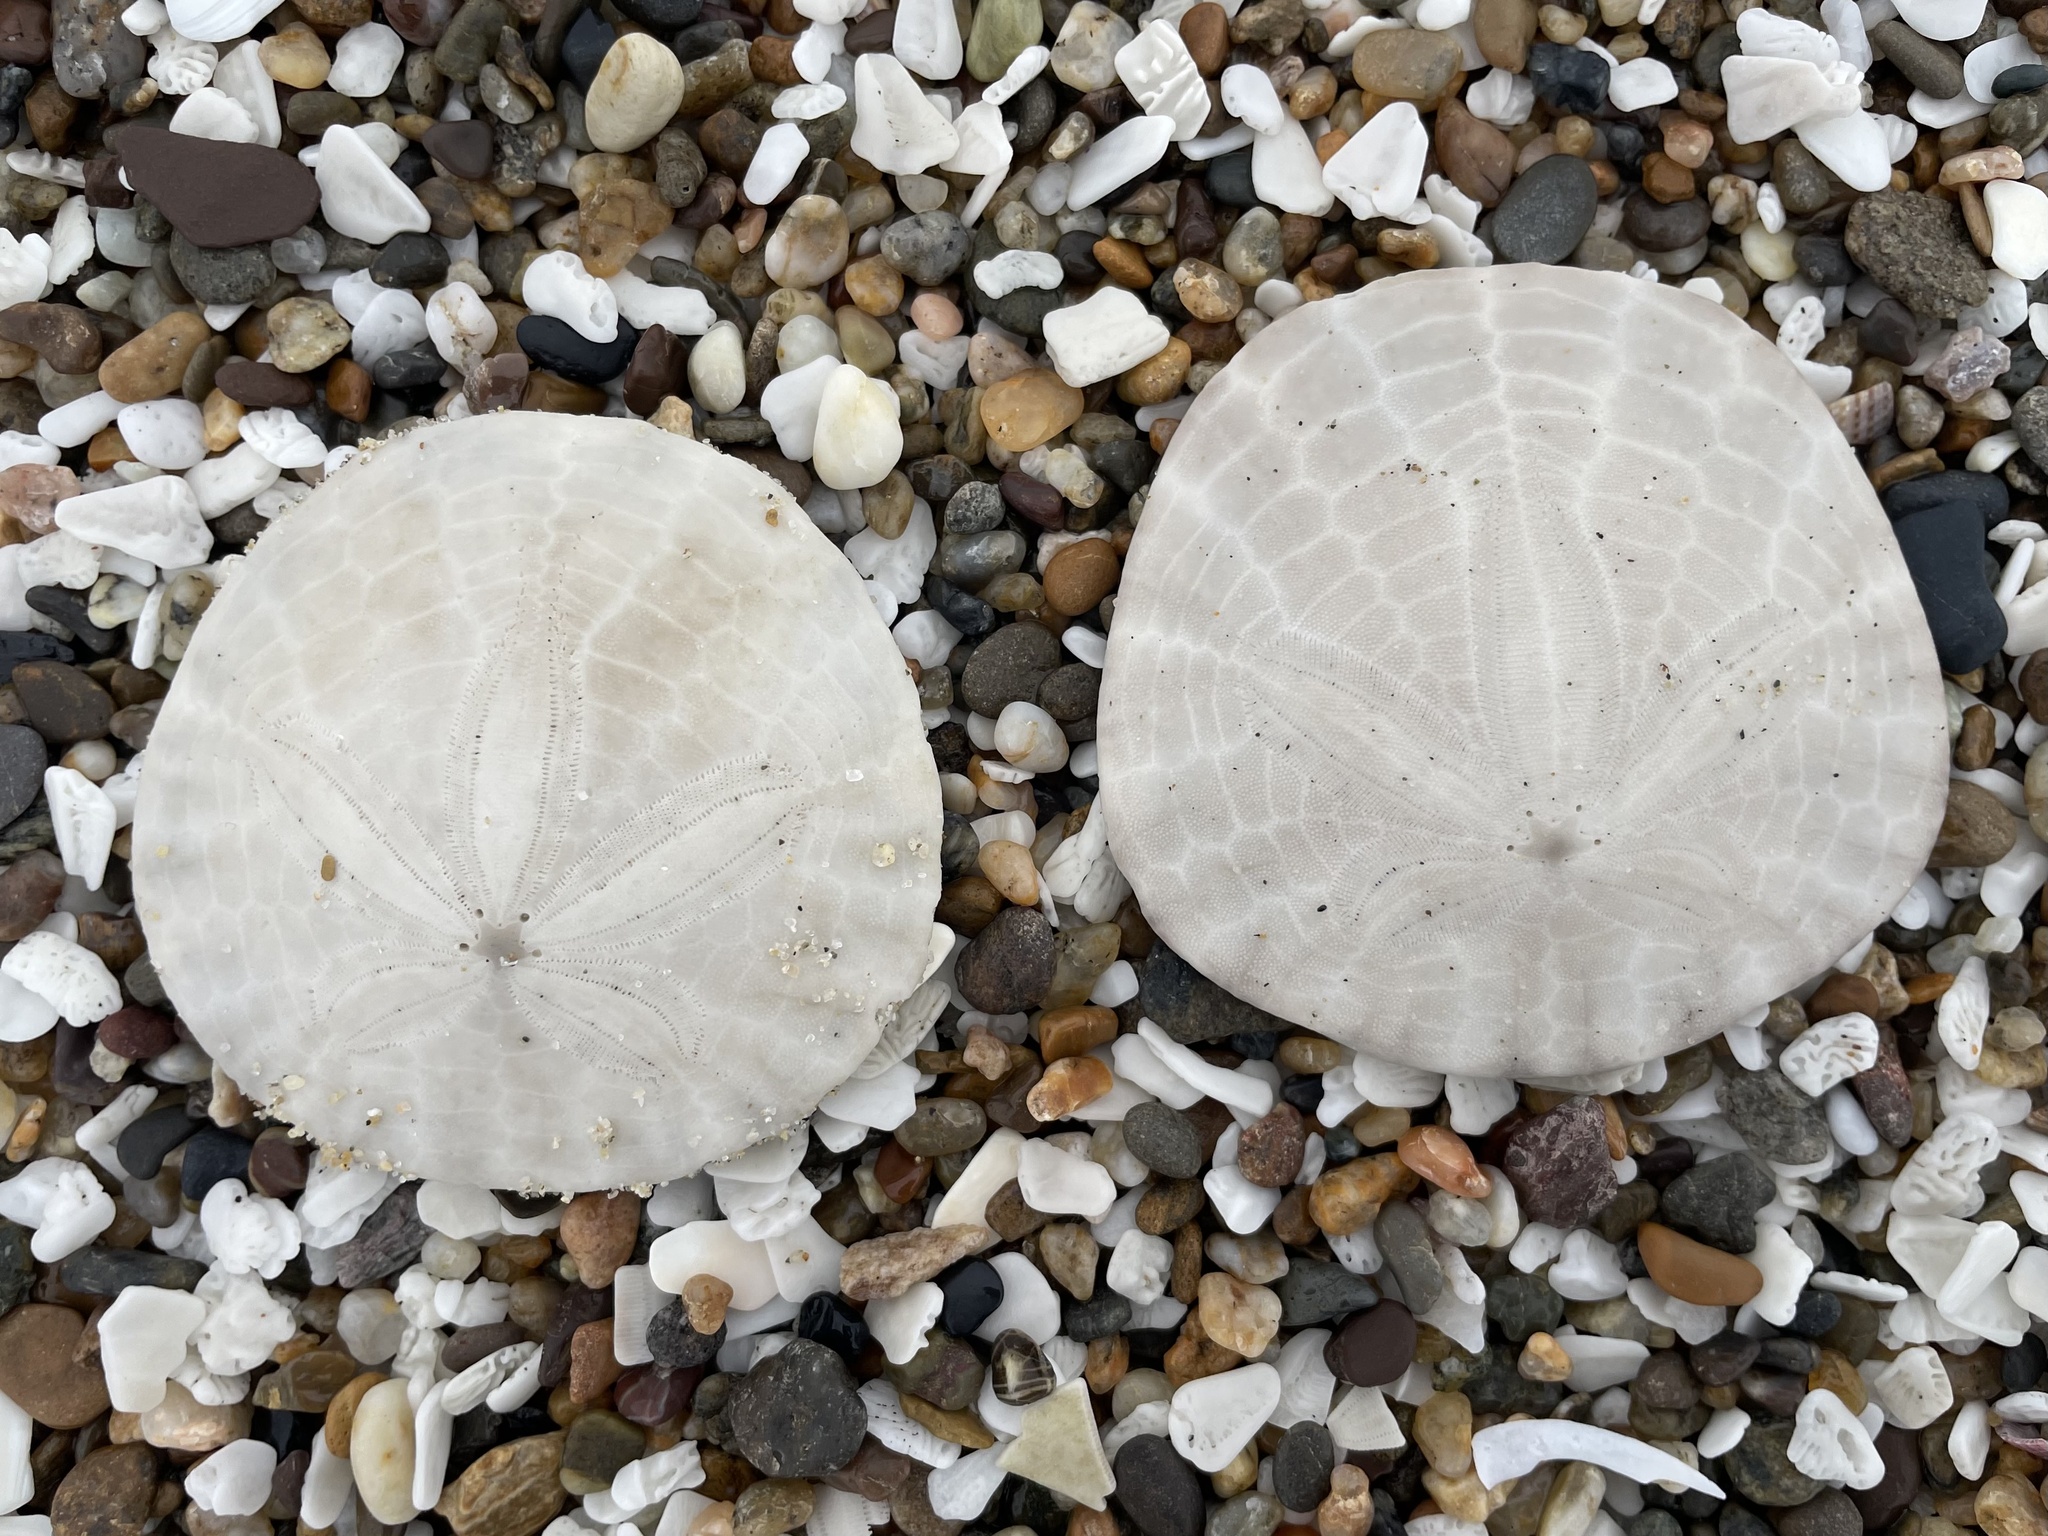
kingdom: Animalia
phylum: Echinodermata
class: Echinoidea
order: Echinolampadacea
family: Dendrasteridae
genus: Dendraster
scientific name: Dendraster excentricus
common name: Eccentric sand dollar sea urchin
